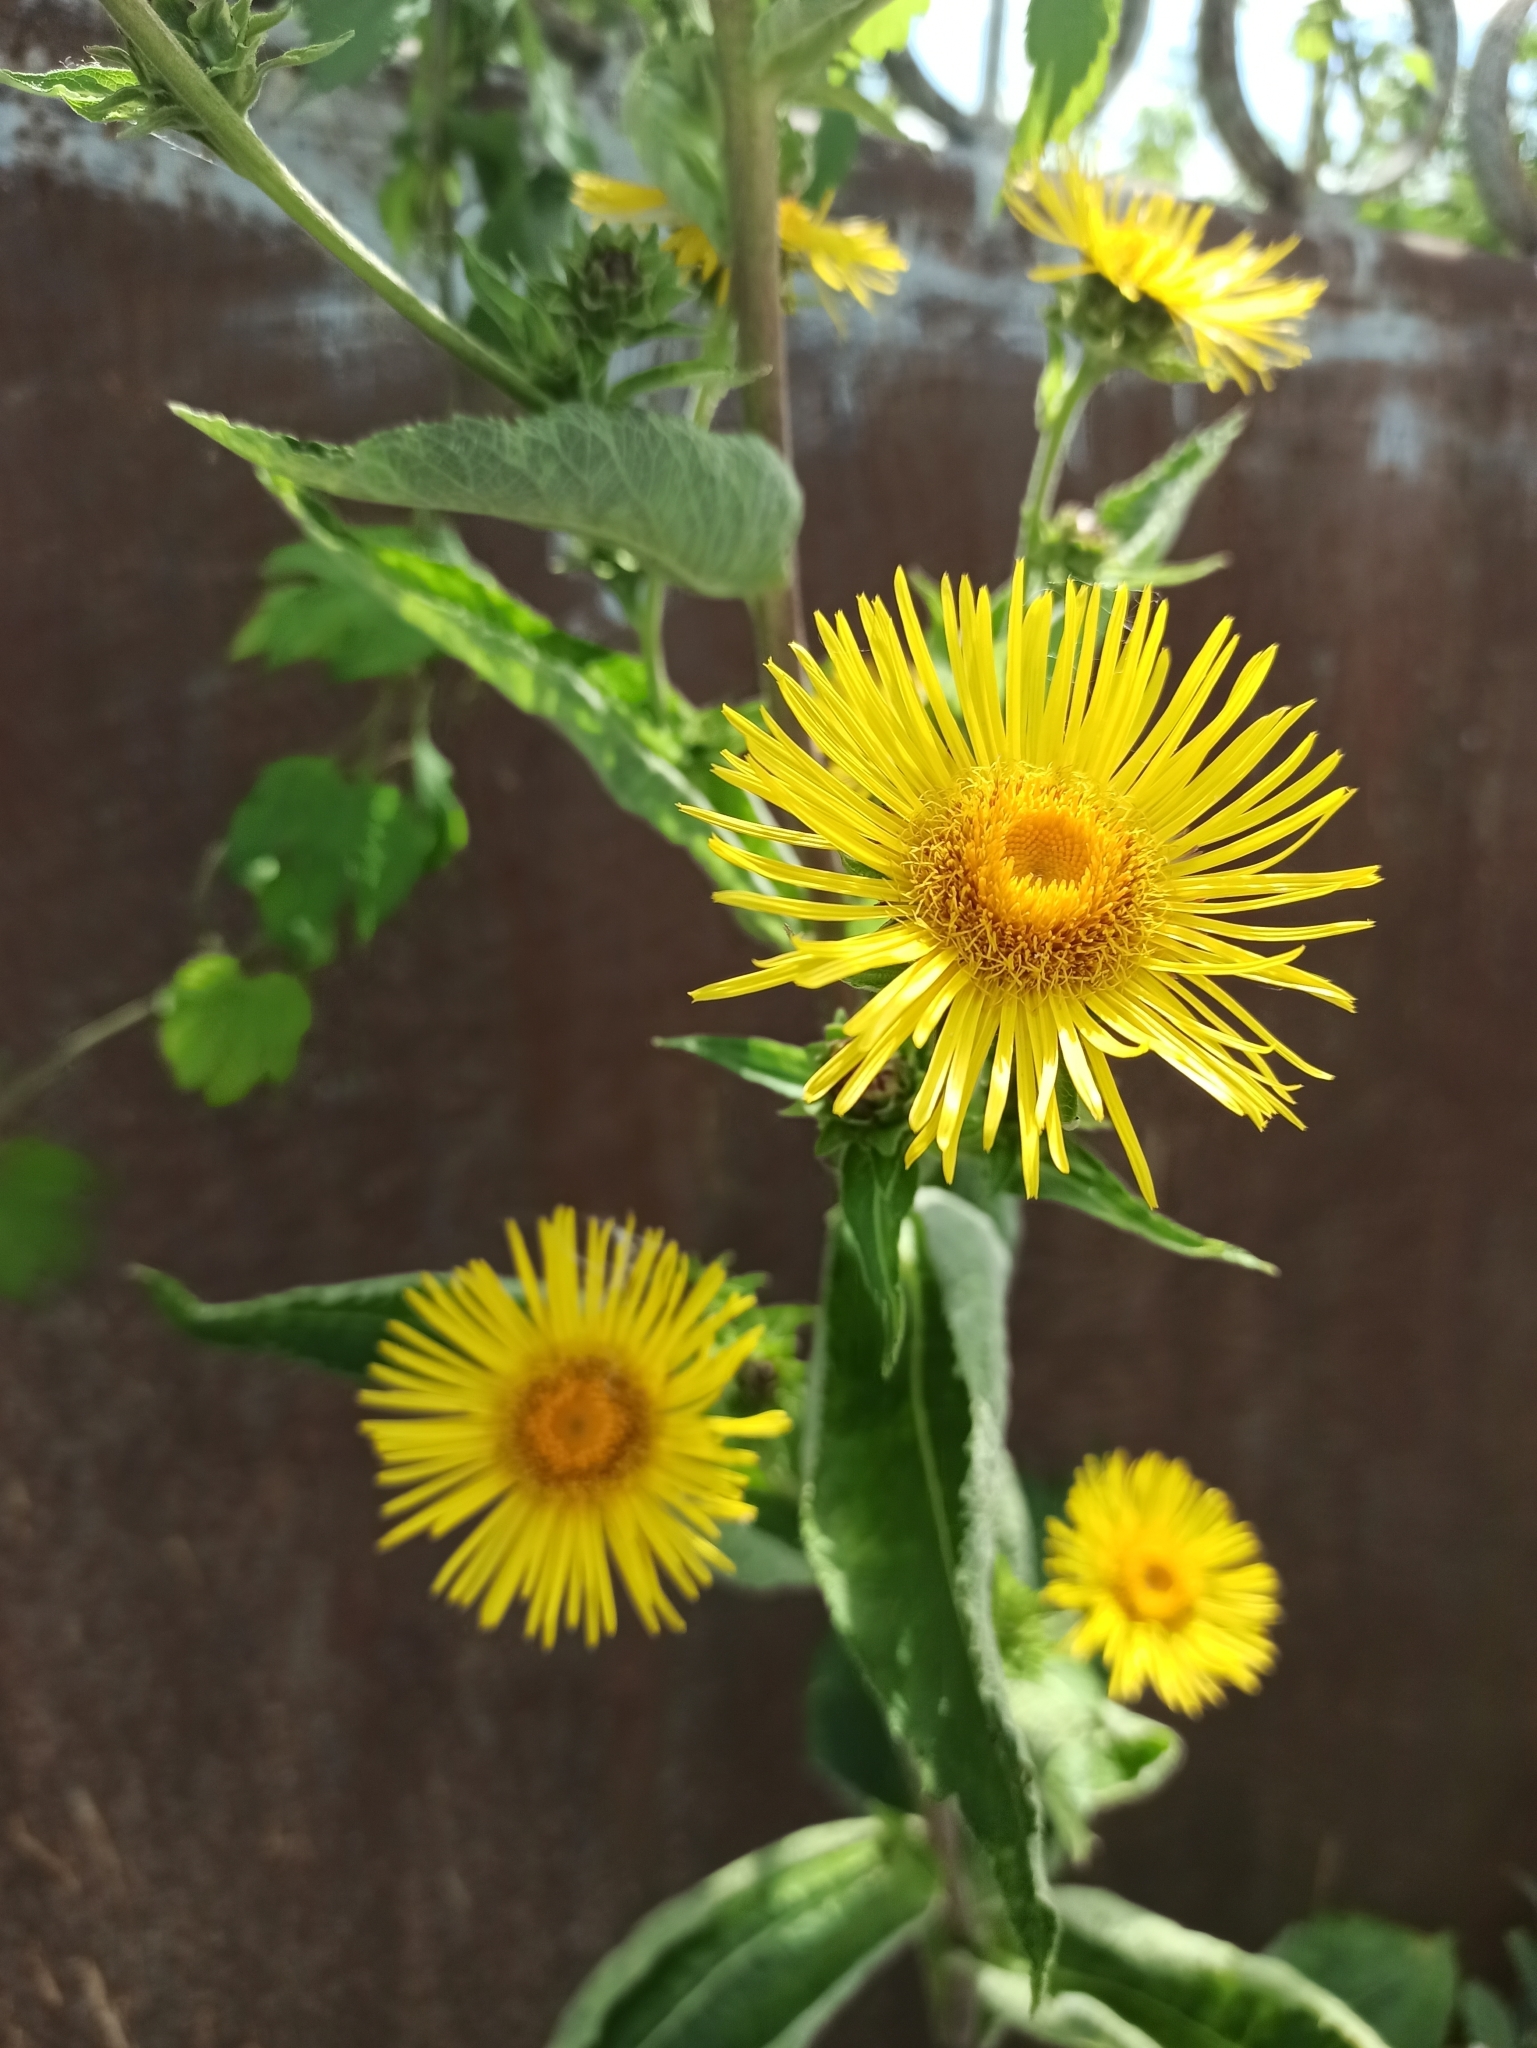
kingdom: Plantae
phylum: Tracheophyta
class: Magnoliopsida
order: Asterales
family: Asteraceae
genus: Inula
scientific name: Inula helenium
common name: Elecampane
